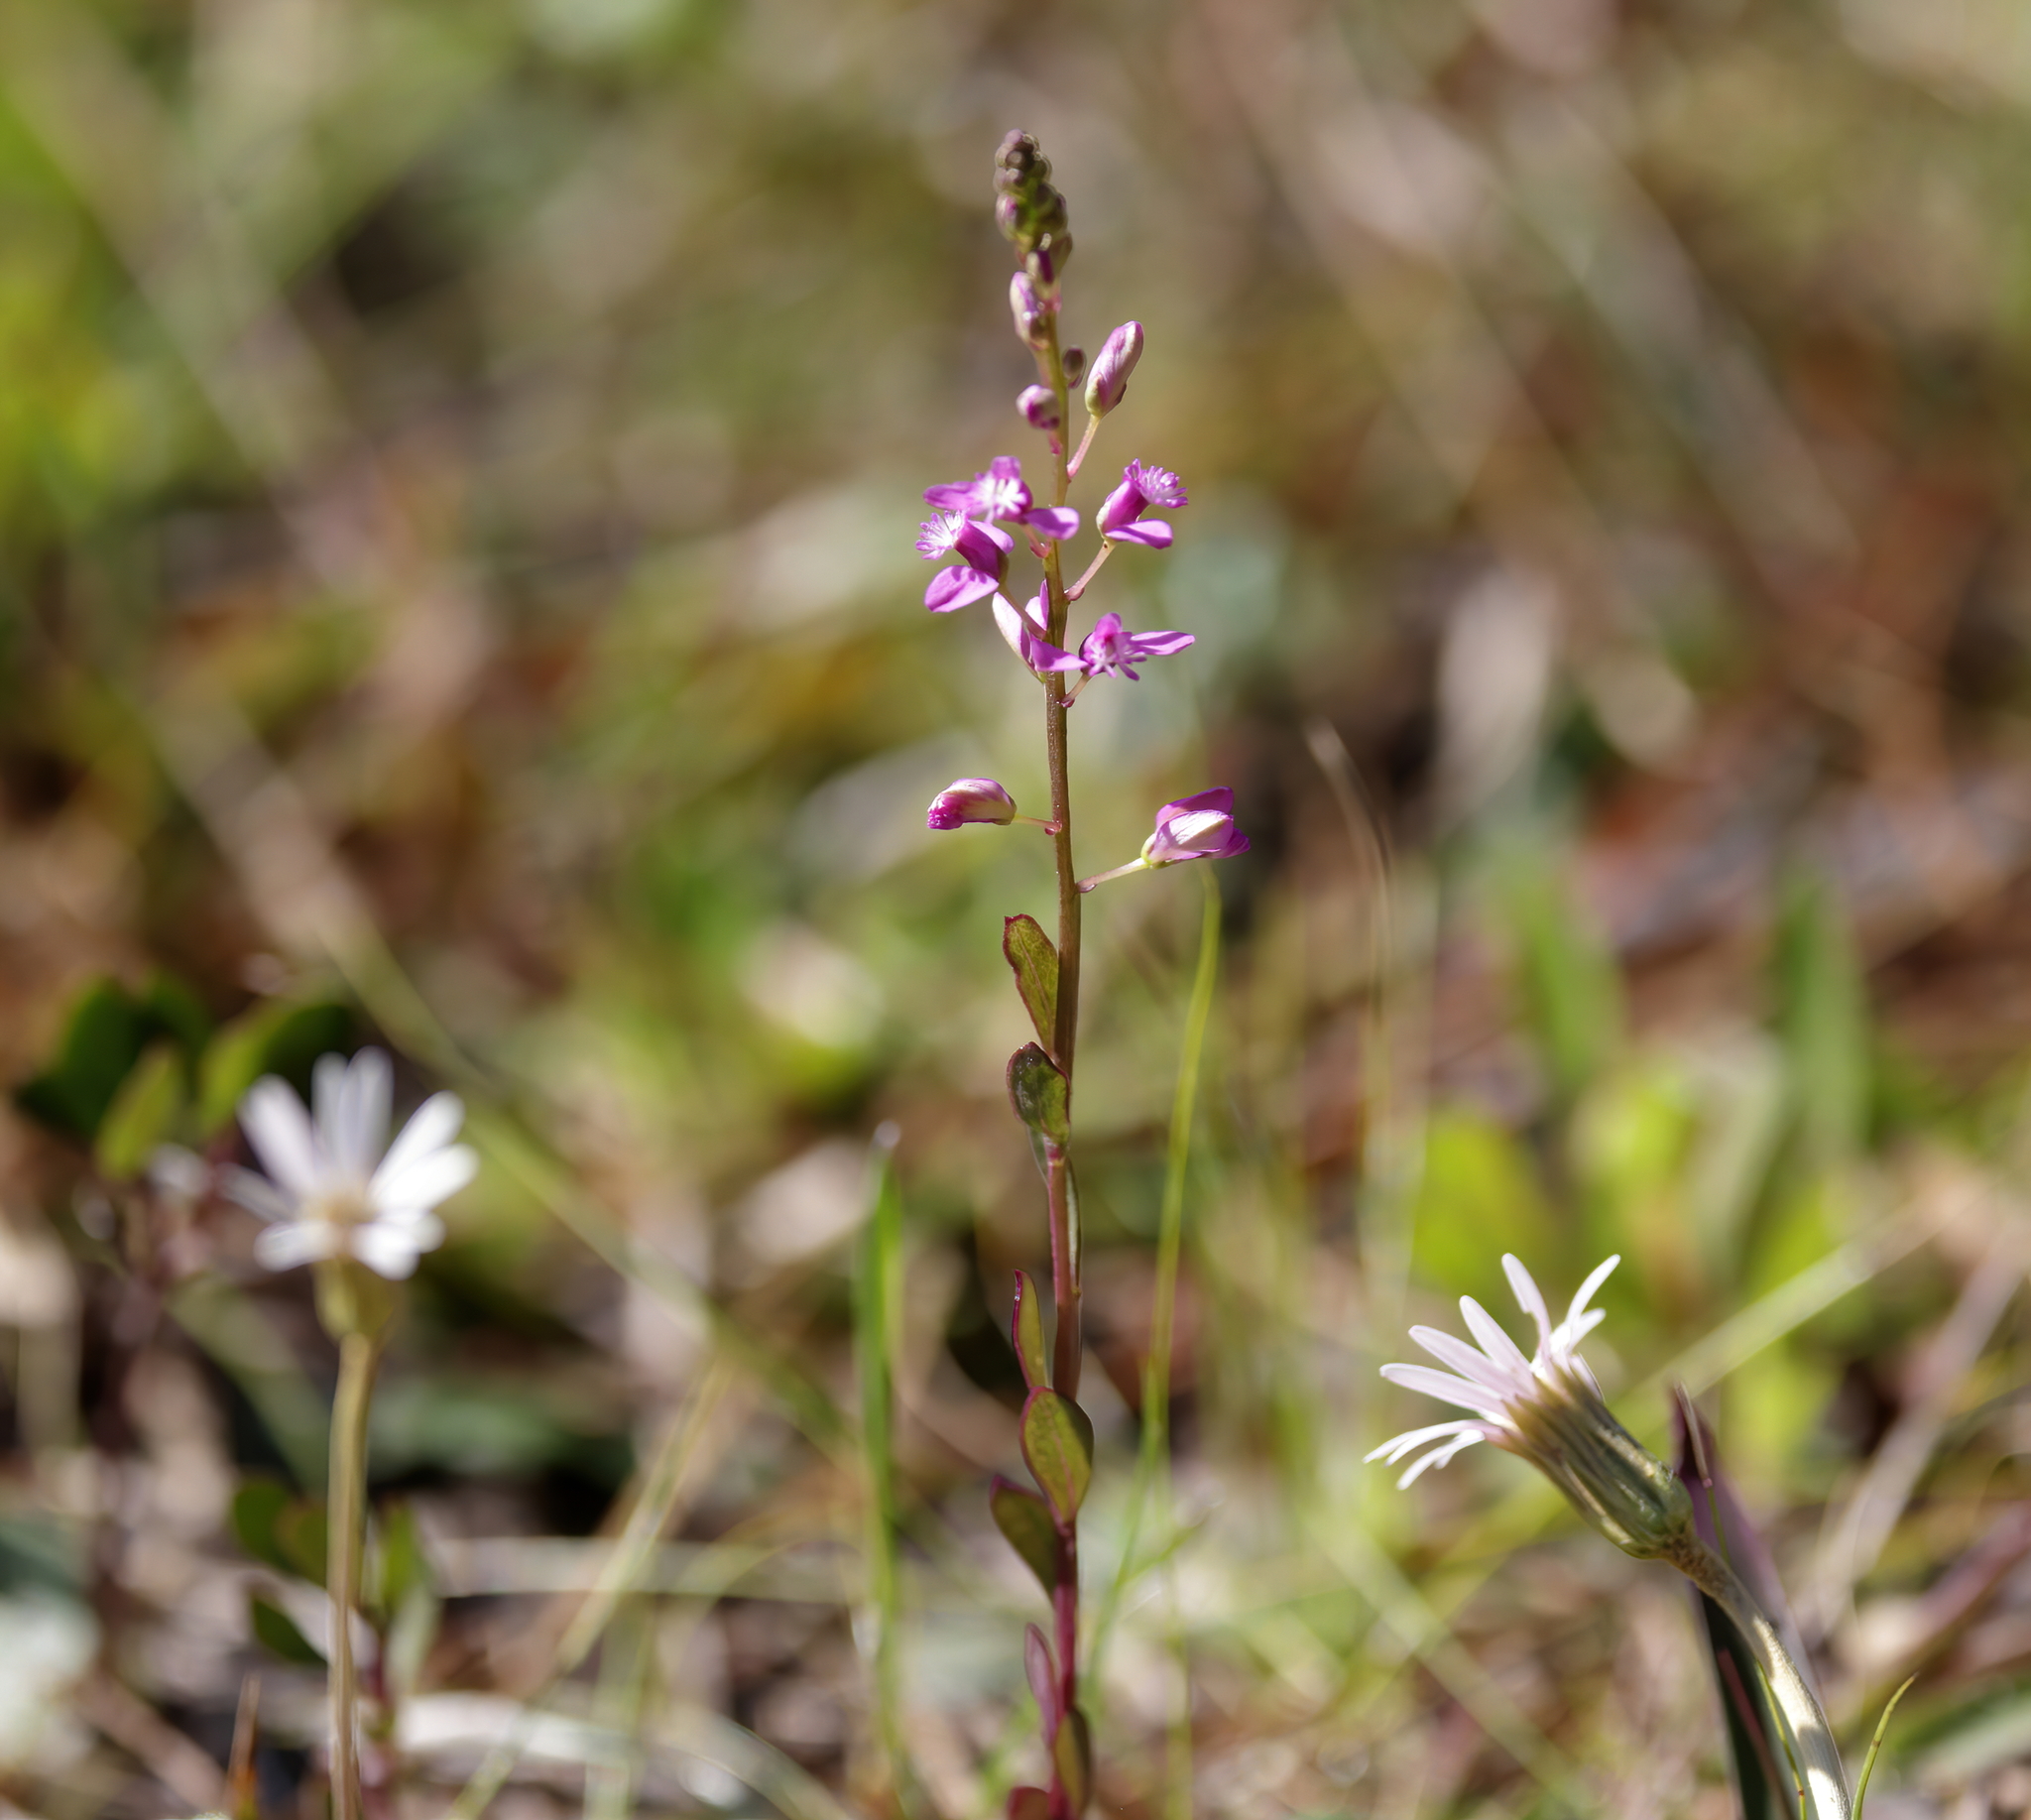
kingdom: Plantae
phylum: Tracheophyta
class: Magnoliopsida
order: Fabales
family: Polygalaceae
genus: Polygala
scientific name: Polygala polygama
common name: Bitter milkwort
